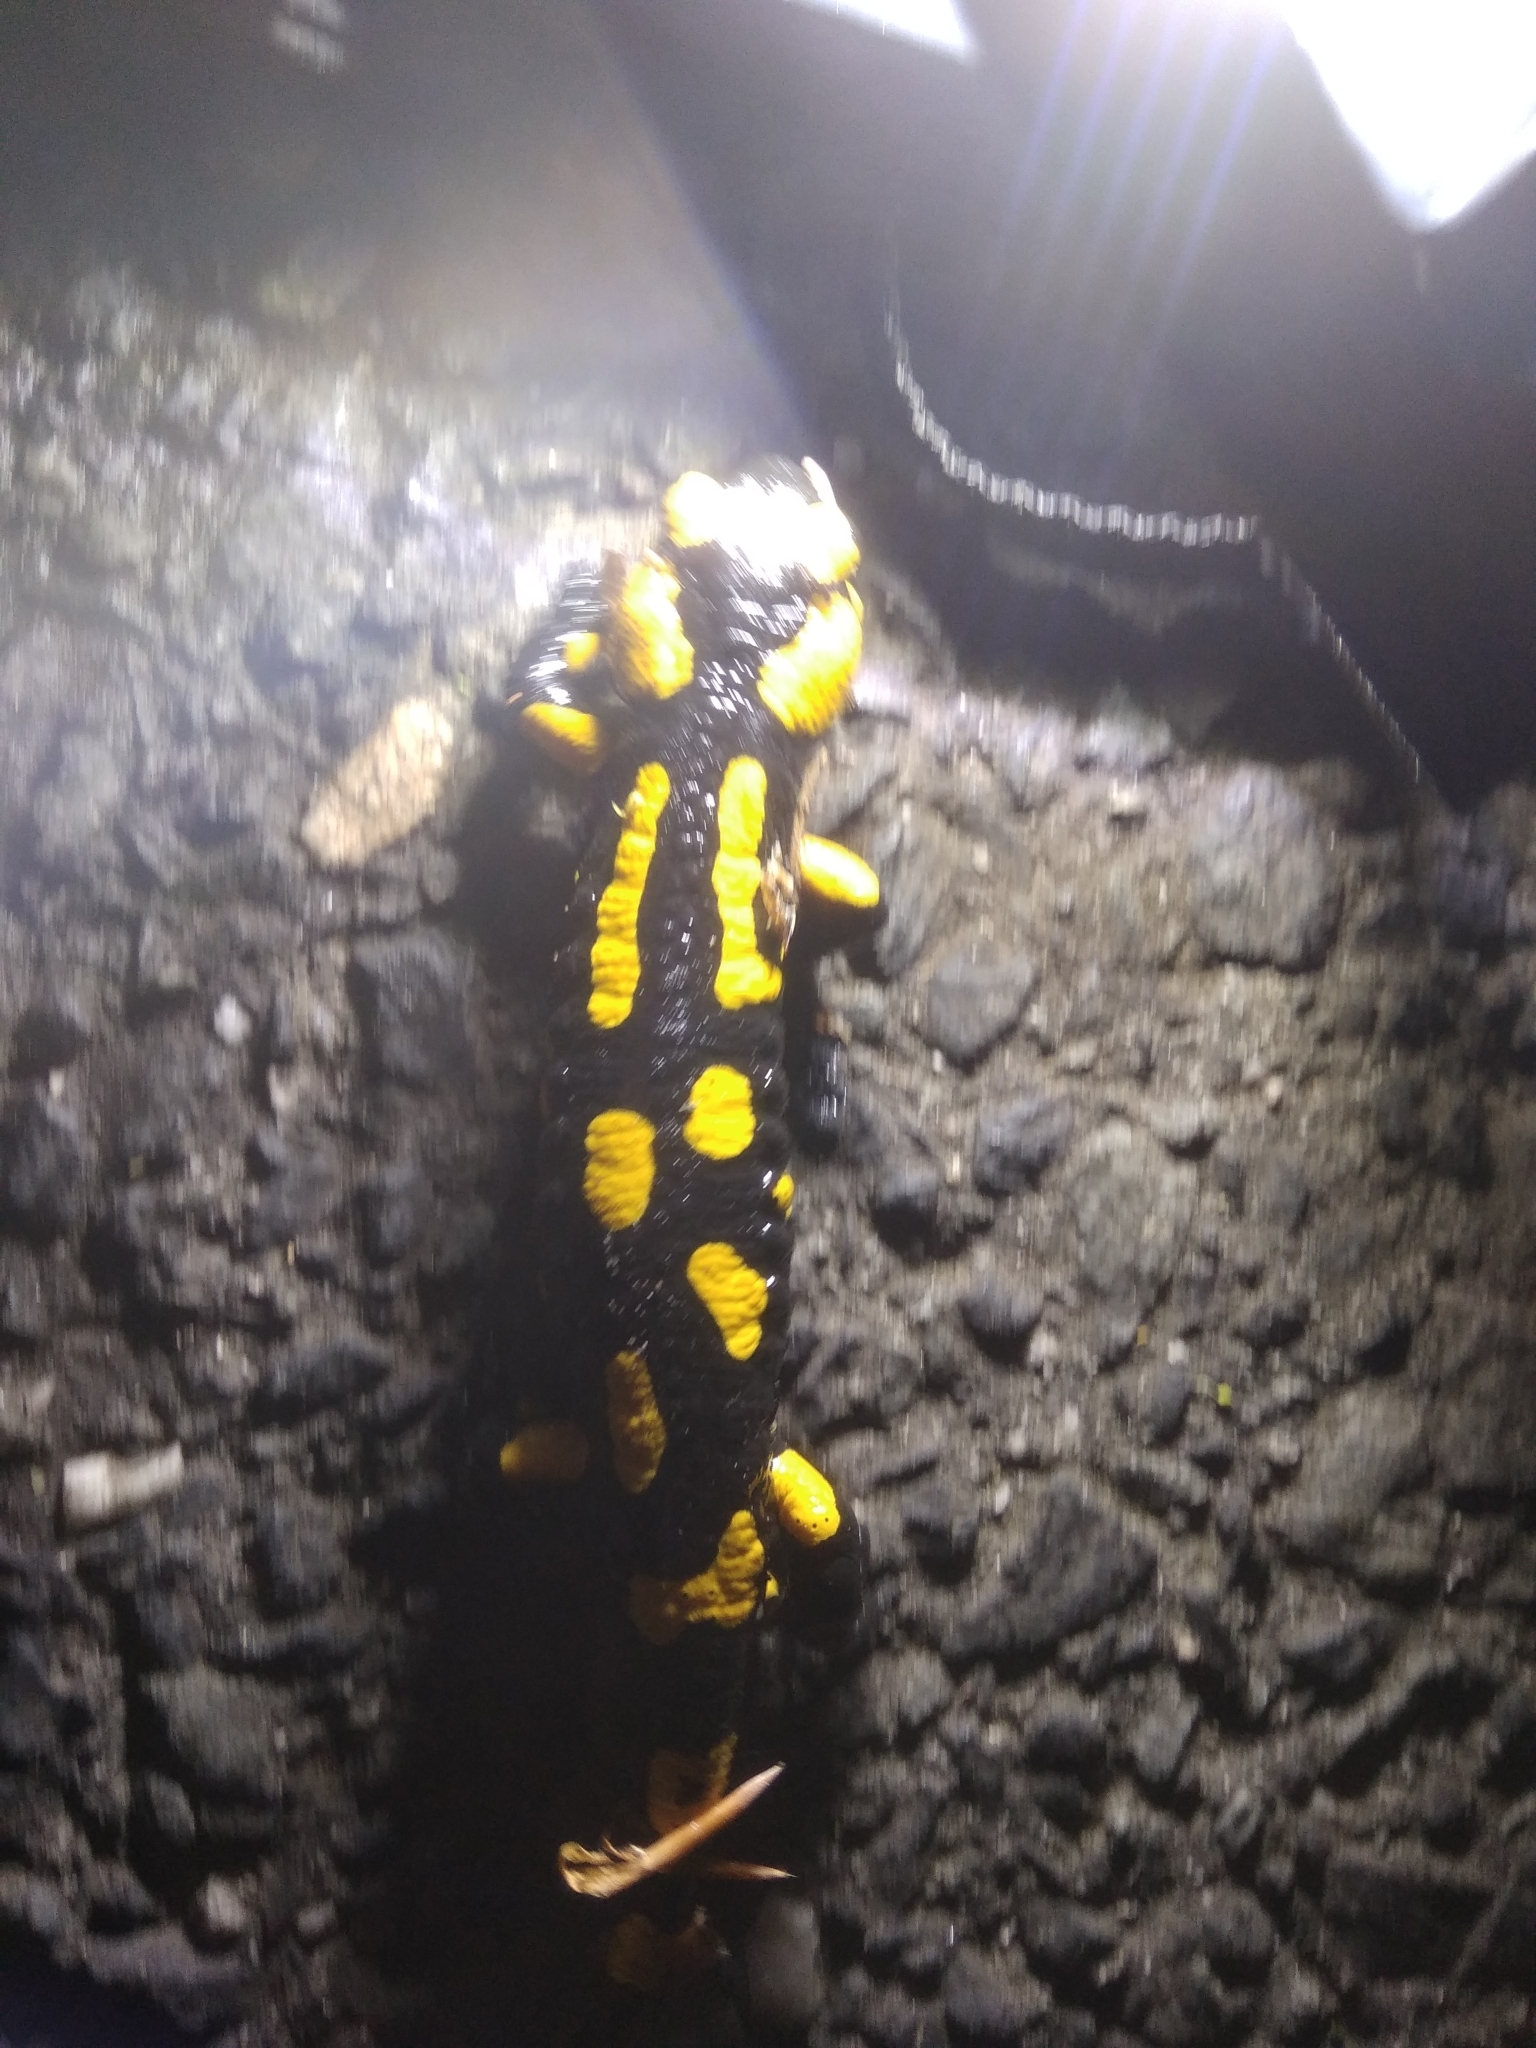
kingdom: Animalia
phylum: Chordata
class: Amphibia
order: Caudata
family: Salamandridae
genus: Salamandra
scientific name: Salamandra salamandra
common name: Fire salamander
